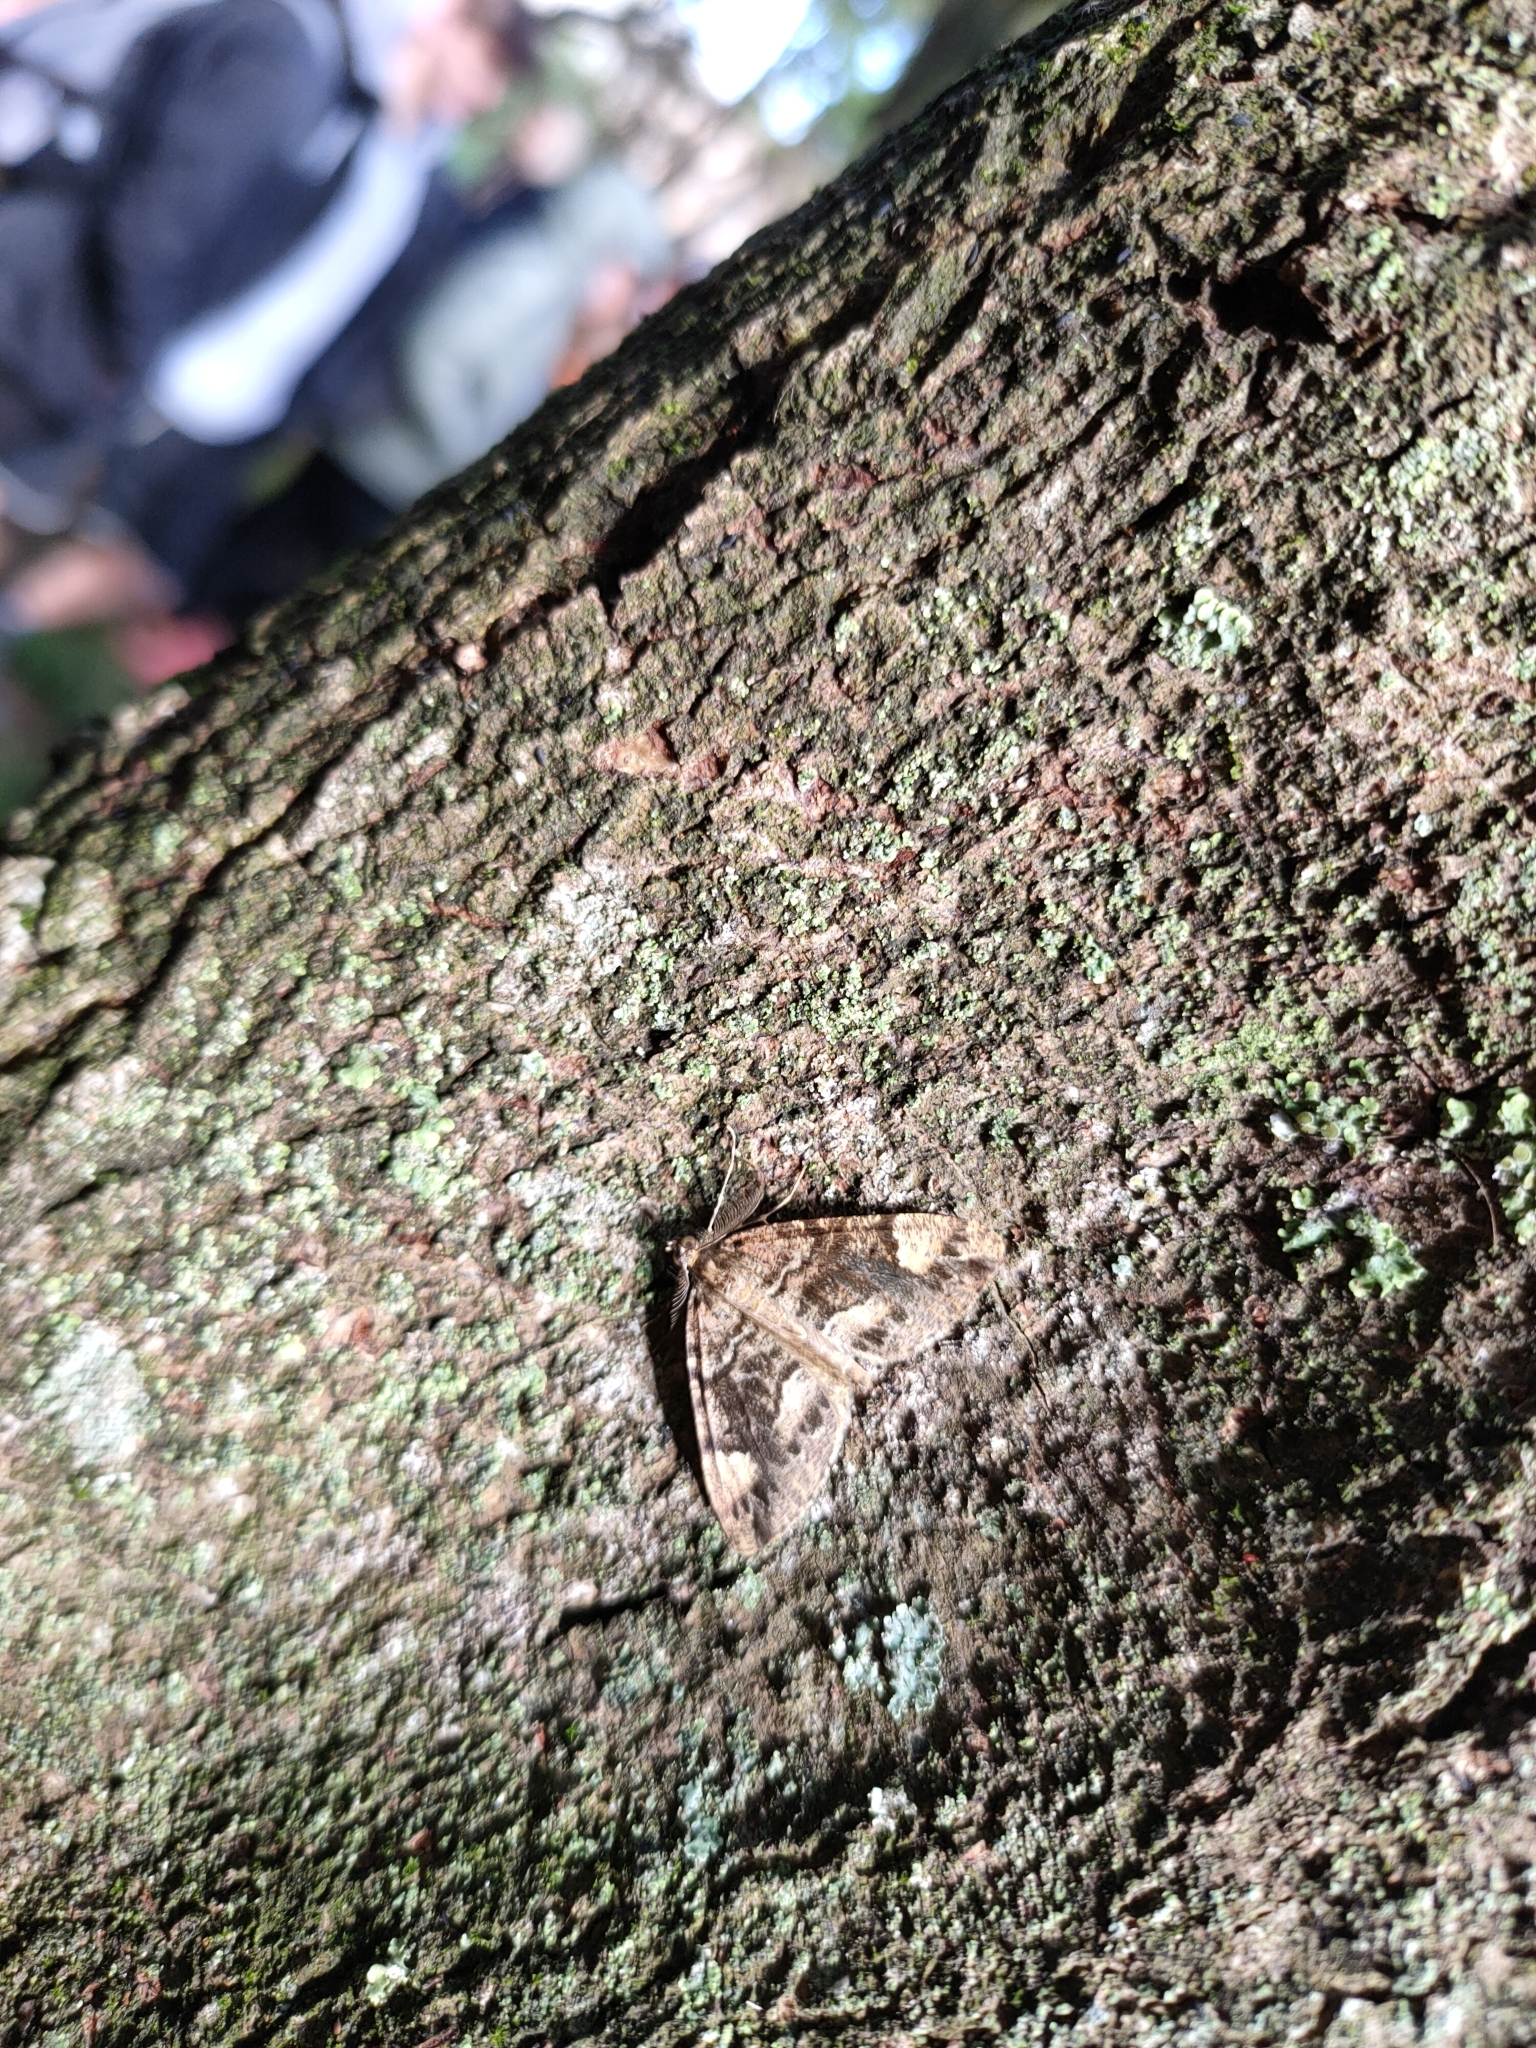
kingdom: Animalia
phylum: Arthropoda
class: Insecta
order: Lepidoptera
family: Geometridae
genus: Pseudocoremia
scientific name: Pseudocoremia productata
